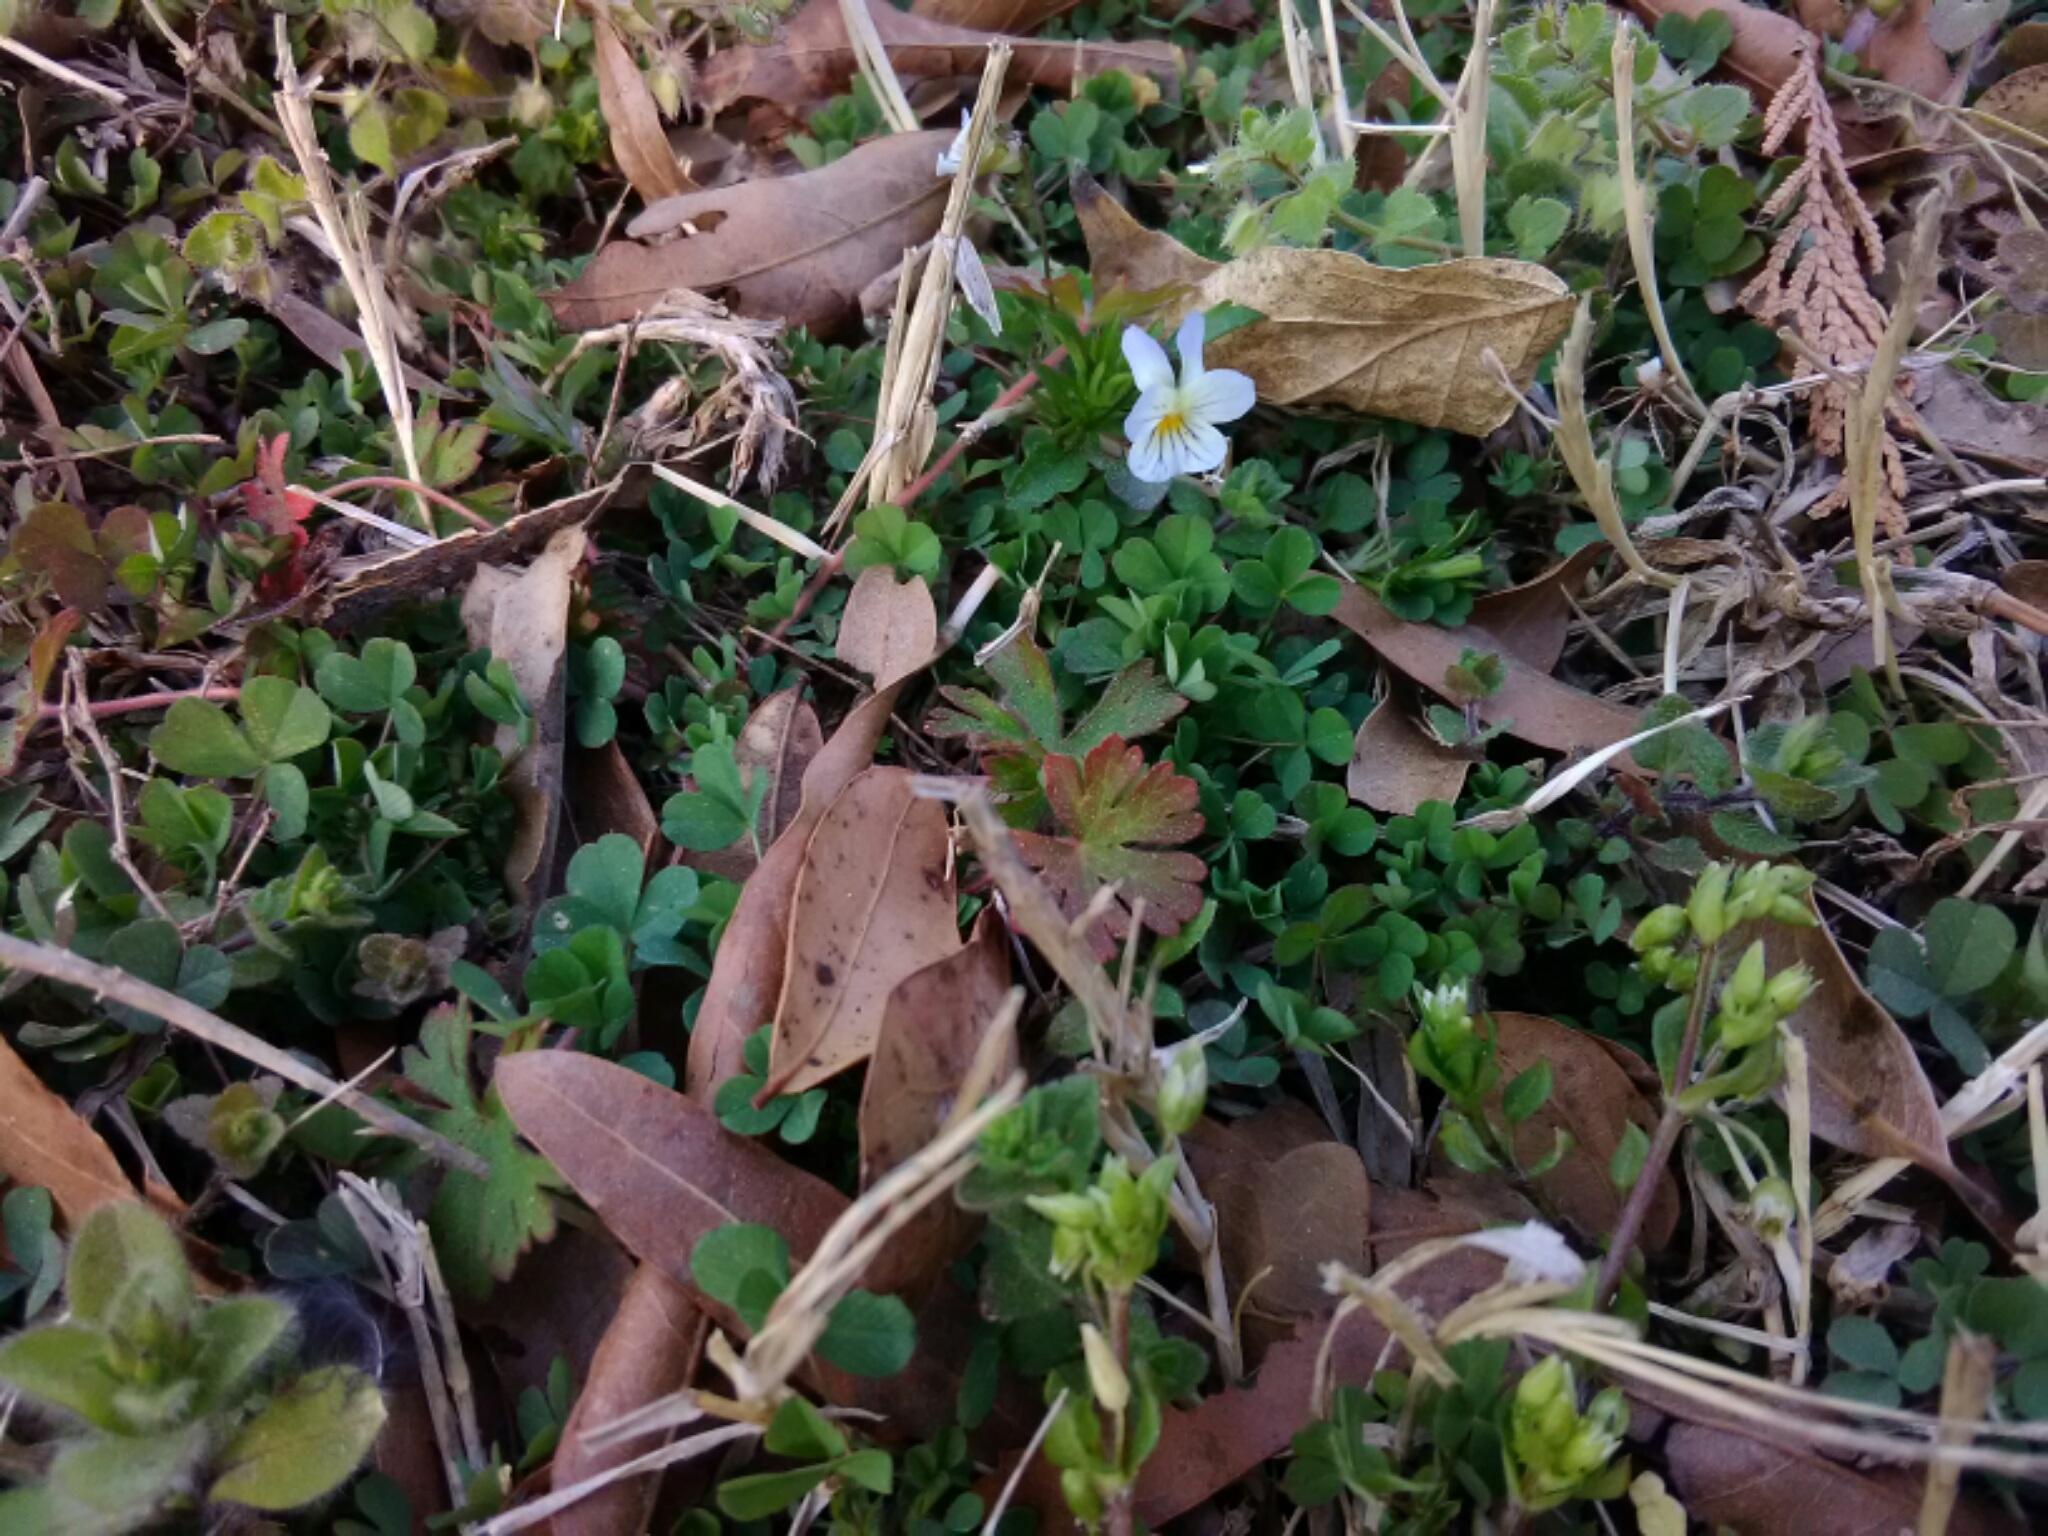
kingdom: Plantae
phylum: Tracheophyta
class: Magnoliopsida
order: Malpighiales
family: Violaceae
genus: Viola
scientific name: Viola rafinesquei
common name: American field pansy
